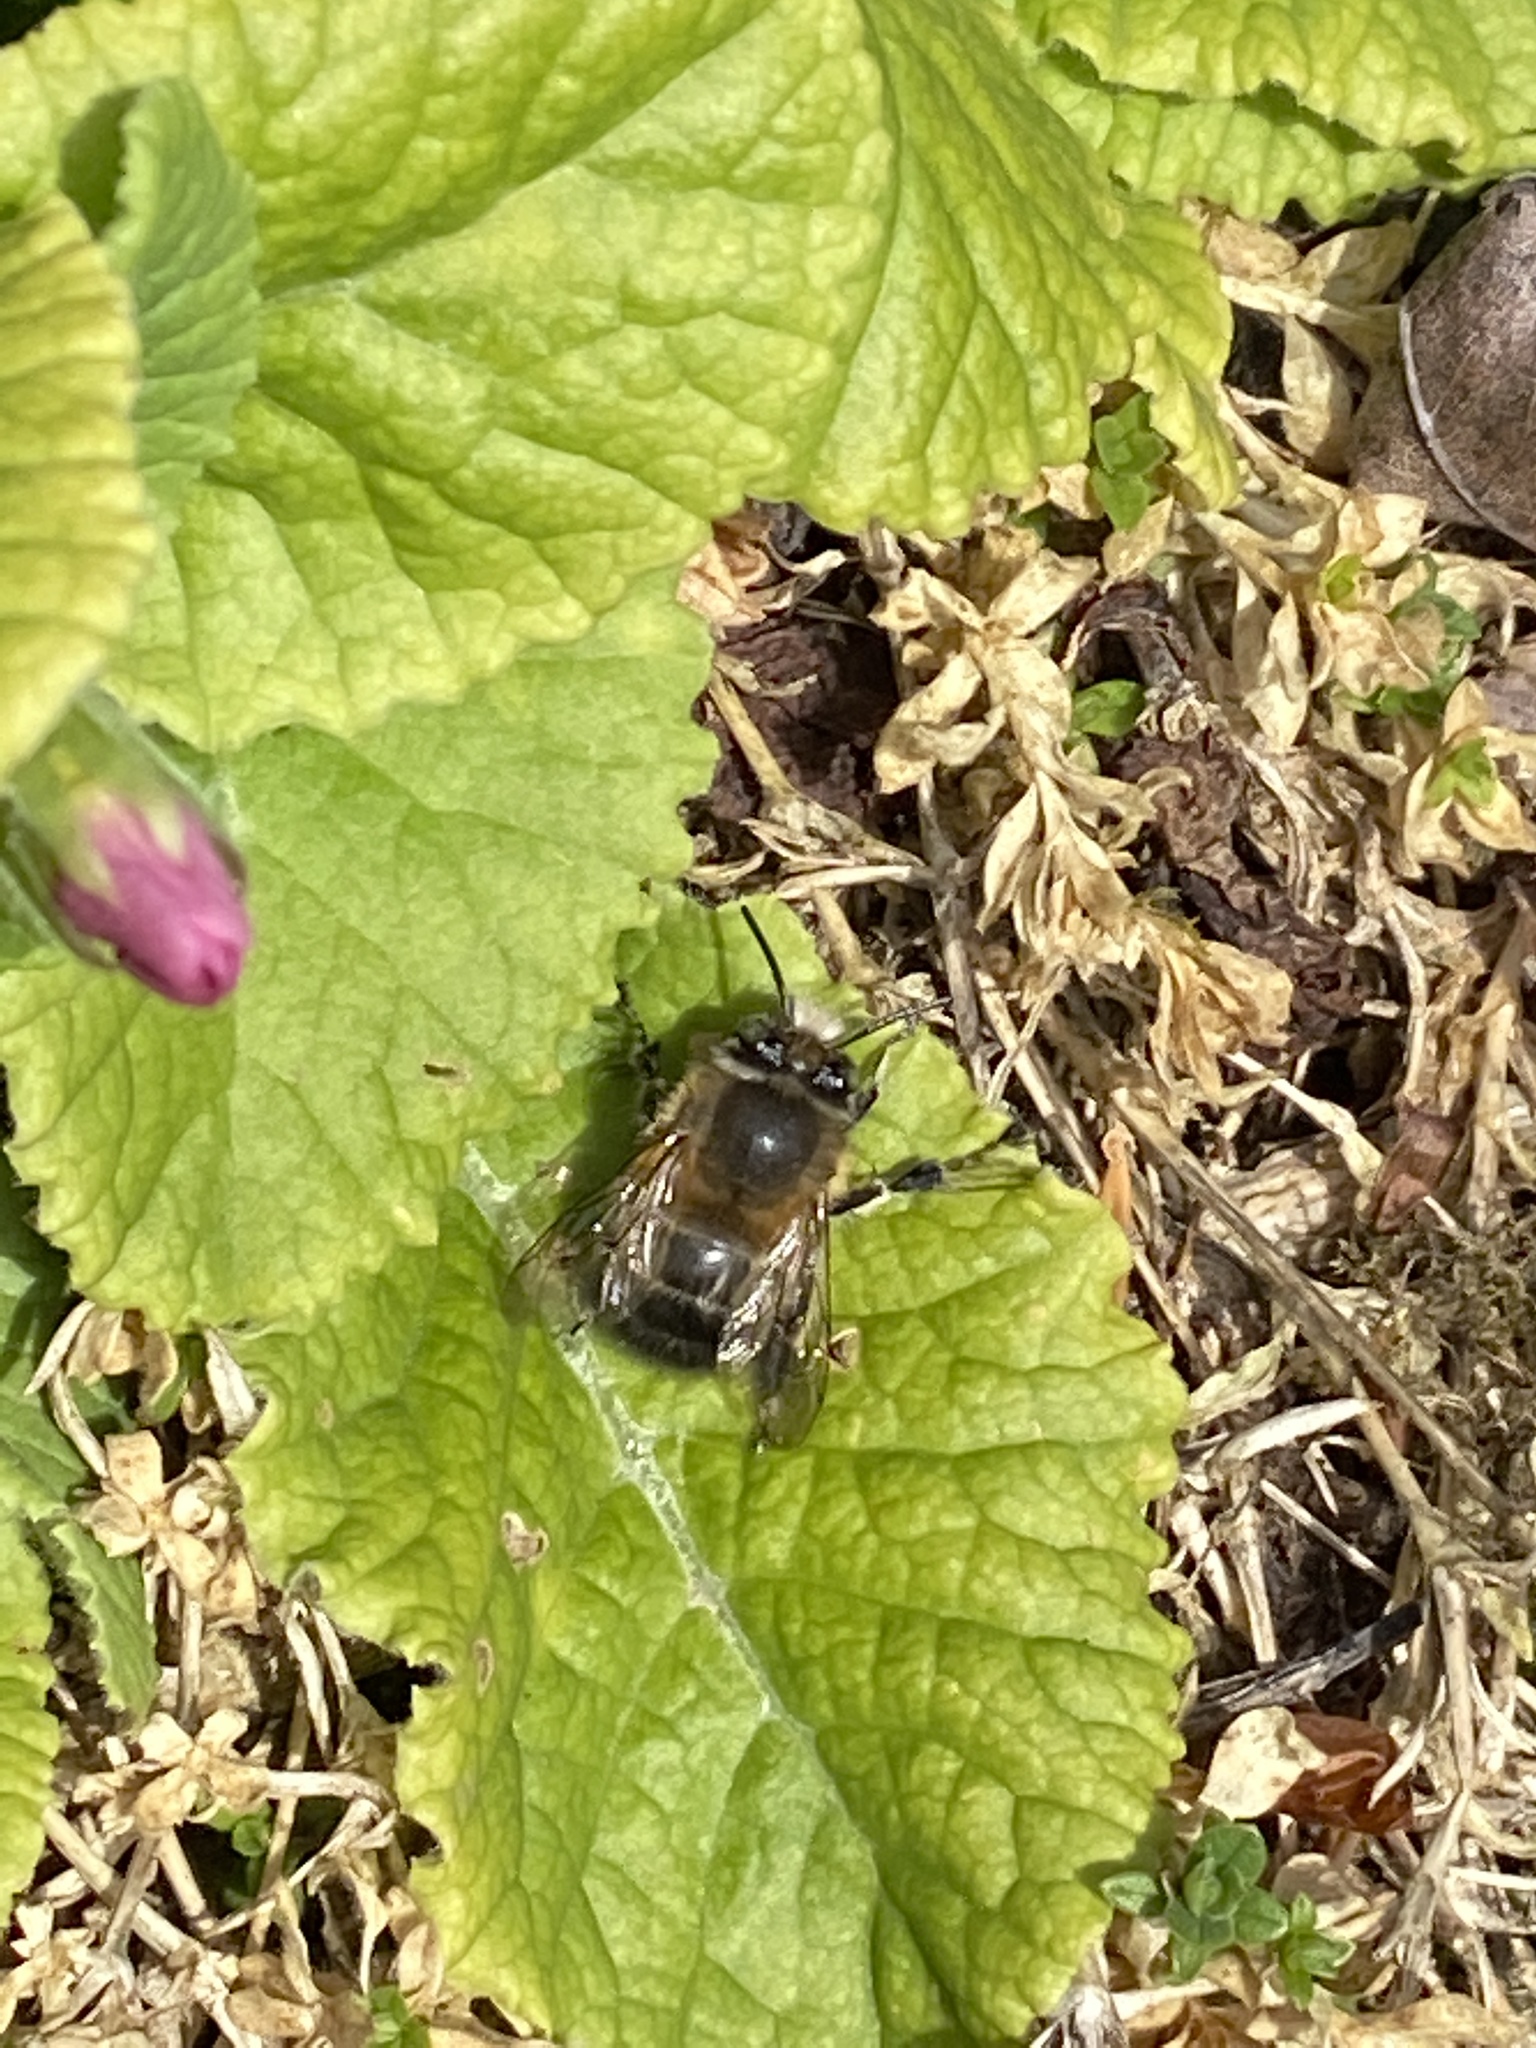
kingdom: Animalia
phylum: Arthropoda
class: Insecta
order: Hymenoptera
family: Apidae
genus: Anthophora
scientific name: Anthophora plumipes
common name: Hairy-footed flower bee
